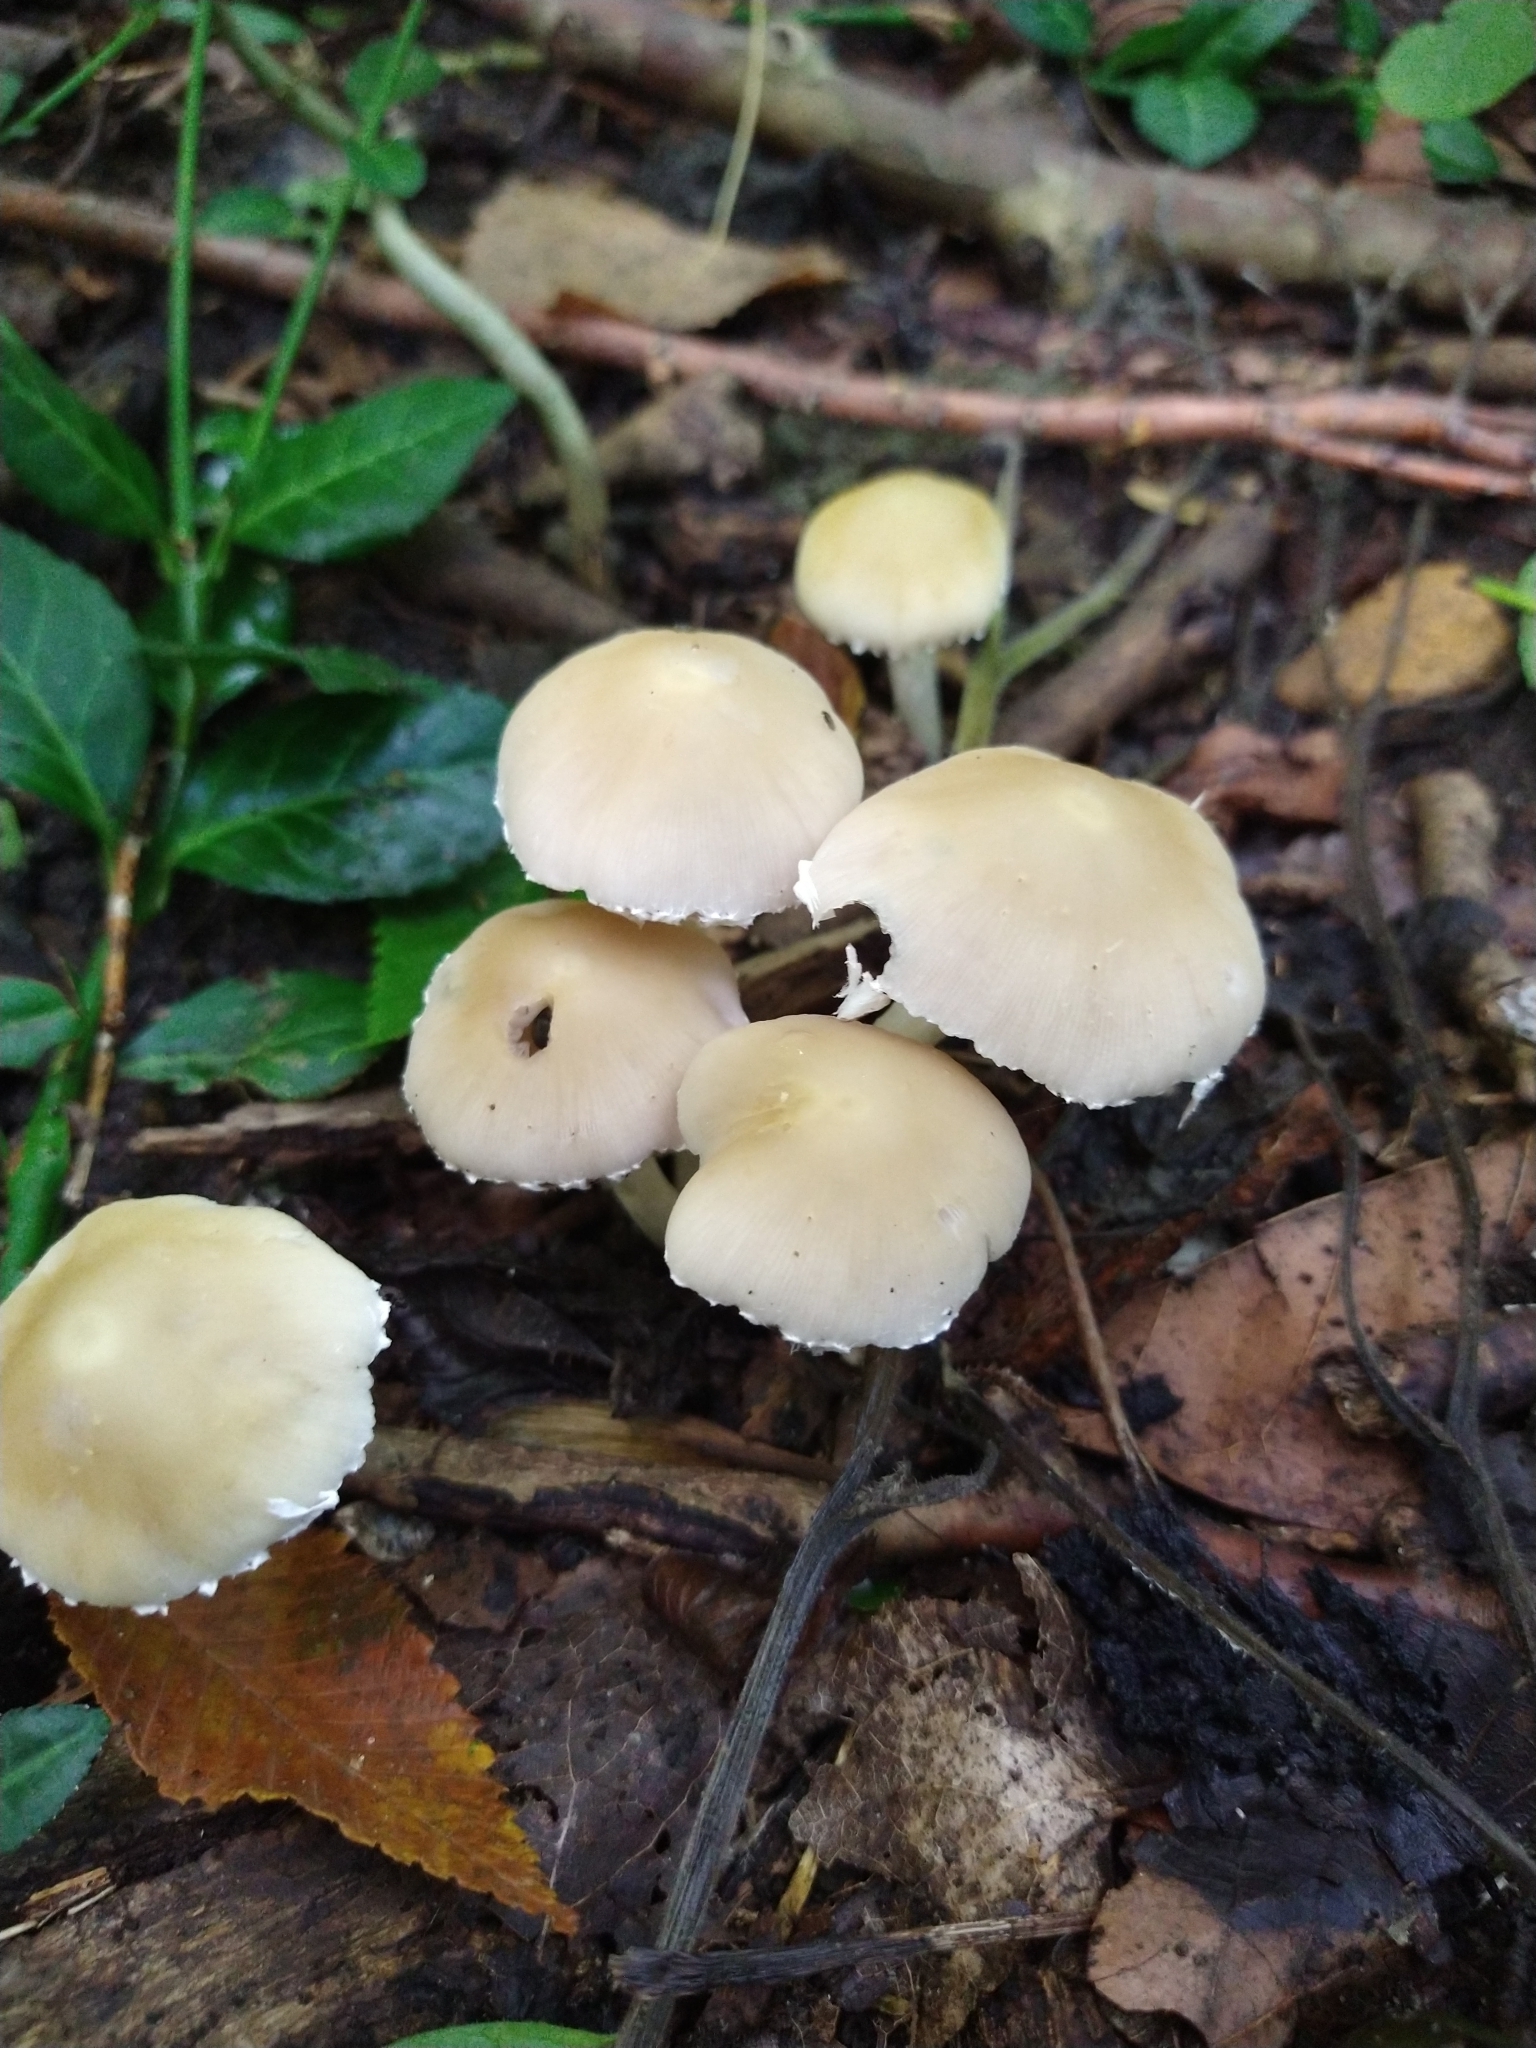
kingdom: Fungi
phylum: Basidiomycota
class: Agaricomycetes
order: Agaricales
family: Psathyrellaceae
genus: Candolleomyces
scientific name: Candolleomyces candolleanus
